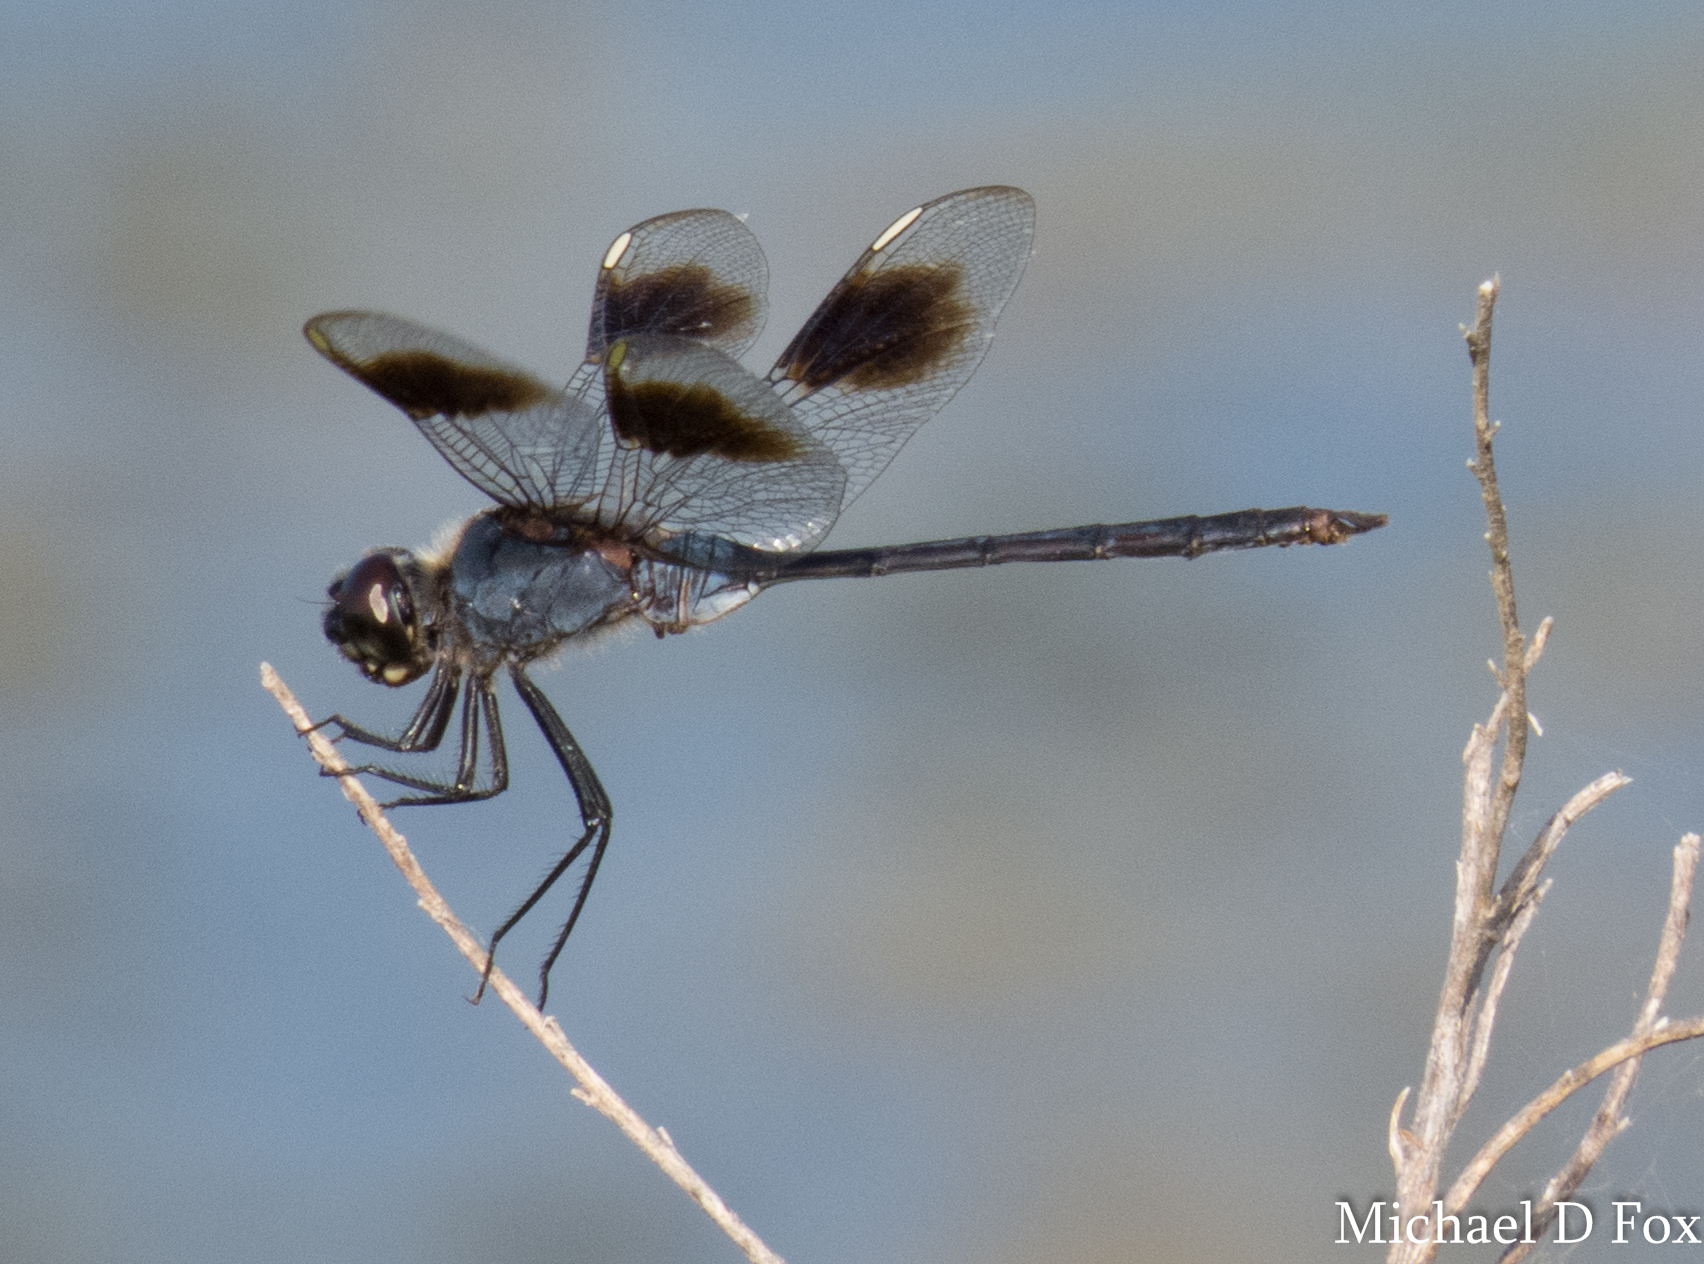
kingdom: Animalia
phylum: Arthropoda
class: Insecta
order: Odonata
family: Libellulidae
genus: Brachymesia
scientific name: Brachymesia gravida
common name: Four-spotted pennant
